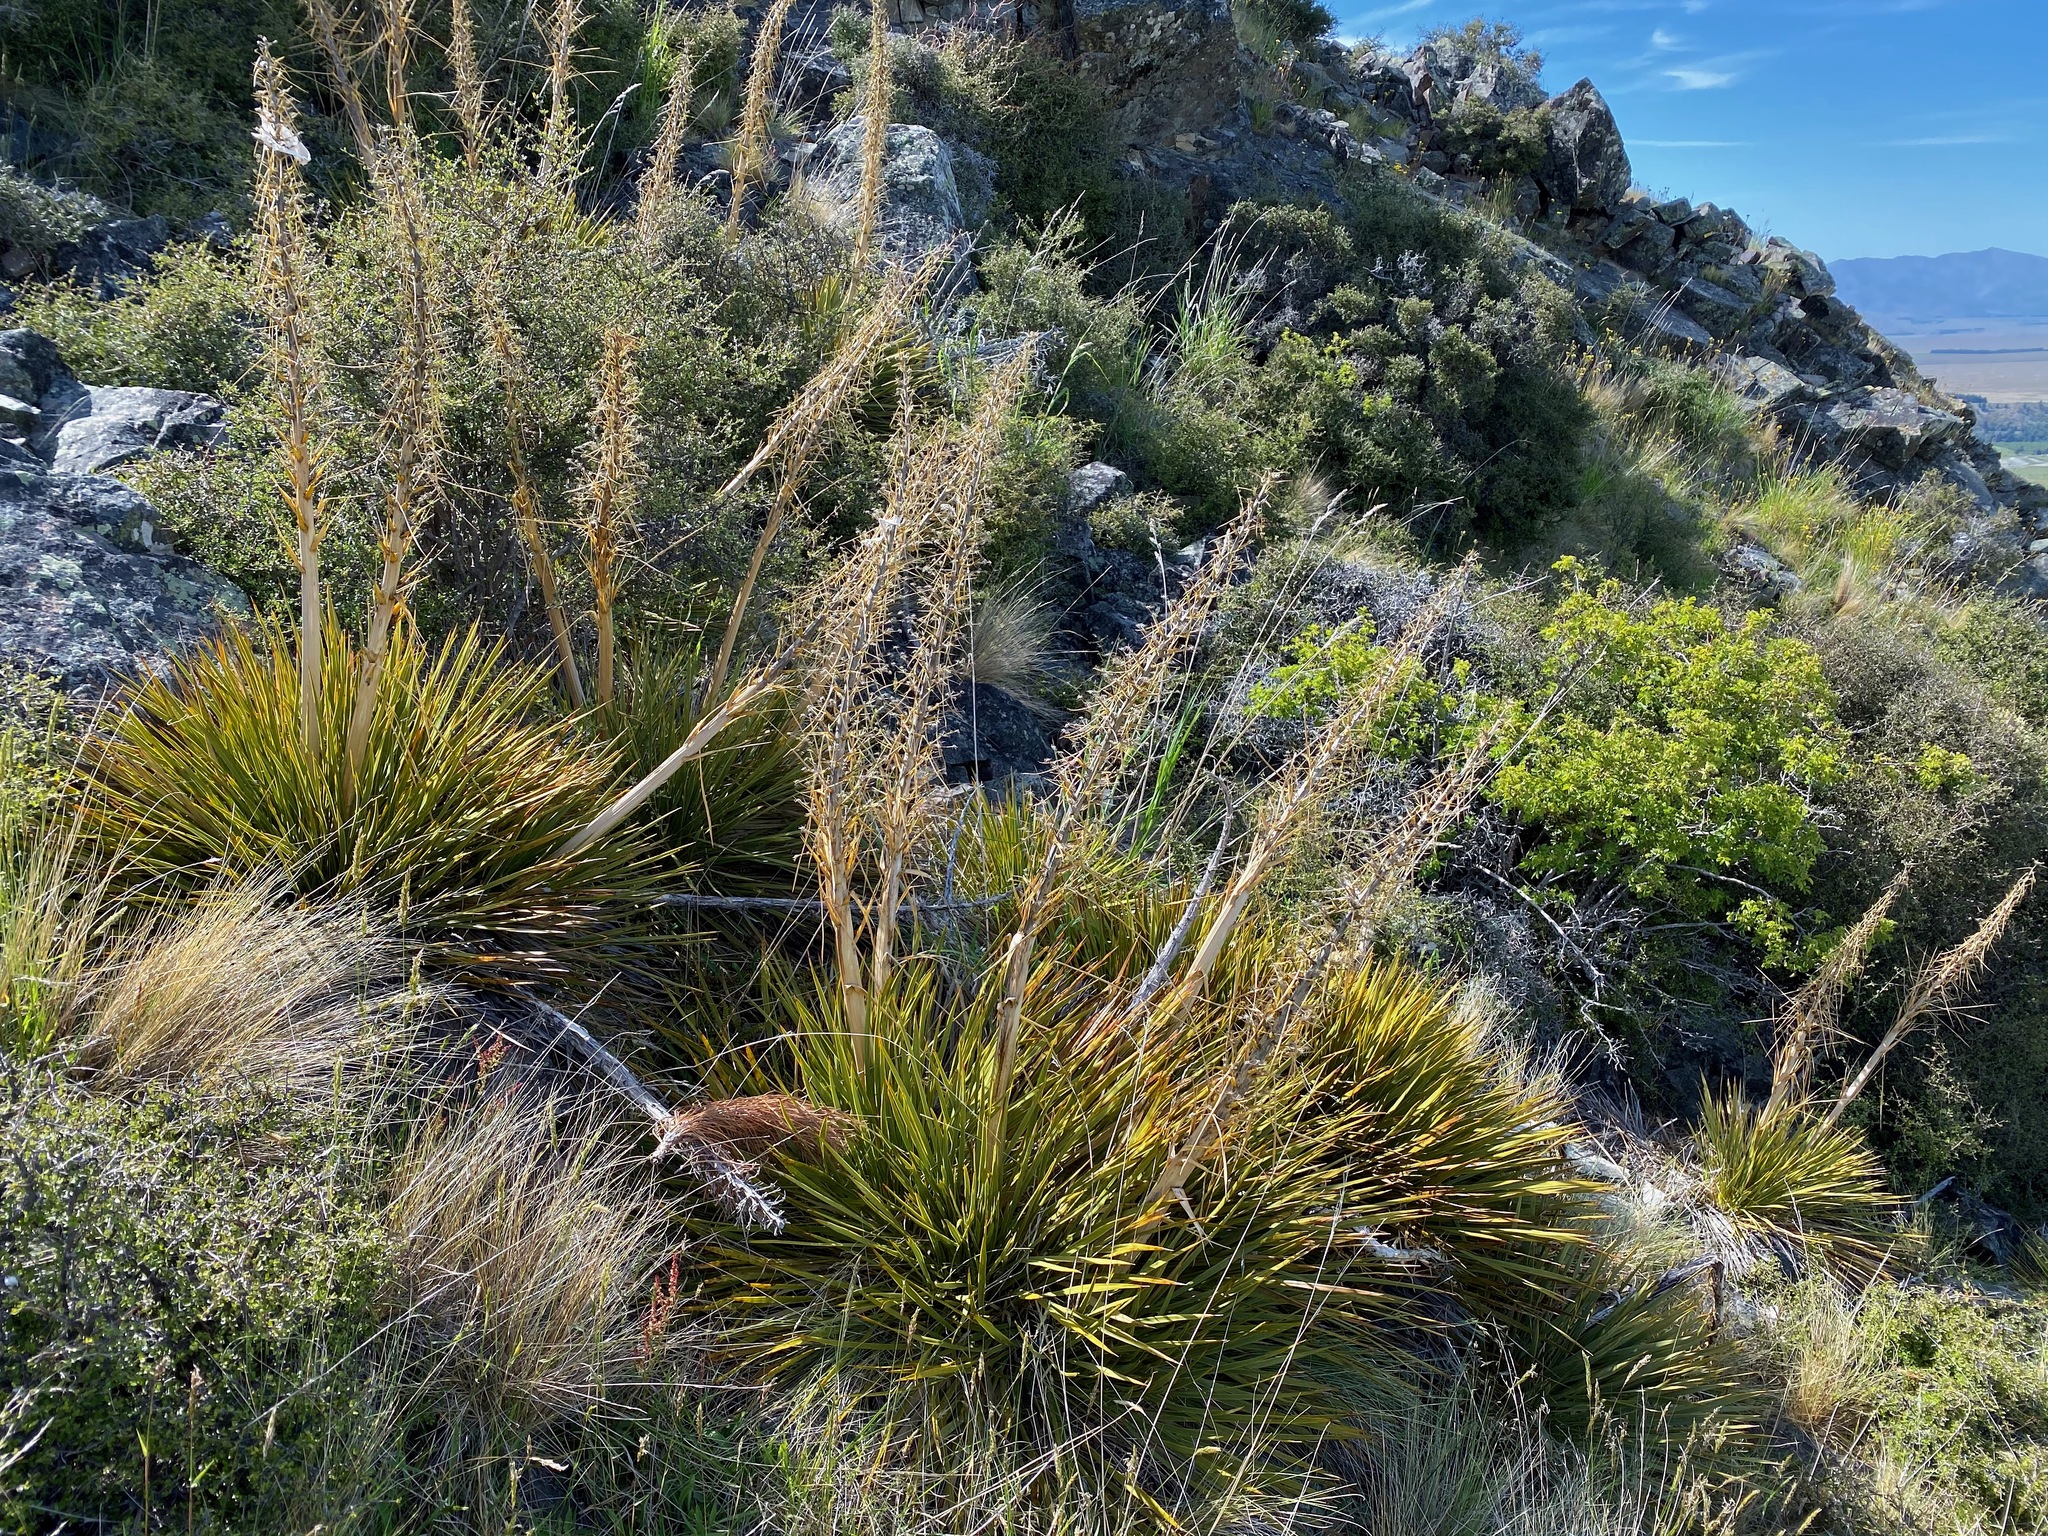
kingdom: Plantae
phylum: Tracheophyta
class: Magnoliopsida
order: Apiales
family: Apiaceae
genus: Aciphylla
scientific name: Aciphylla aurea
